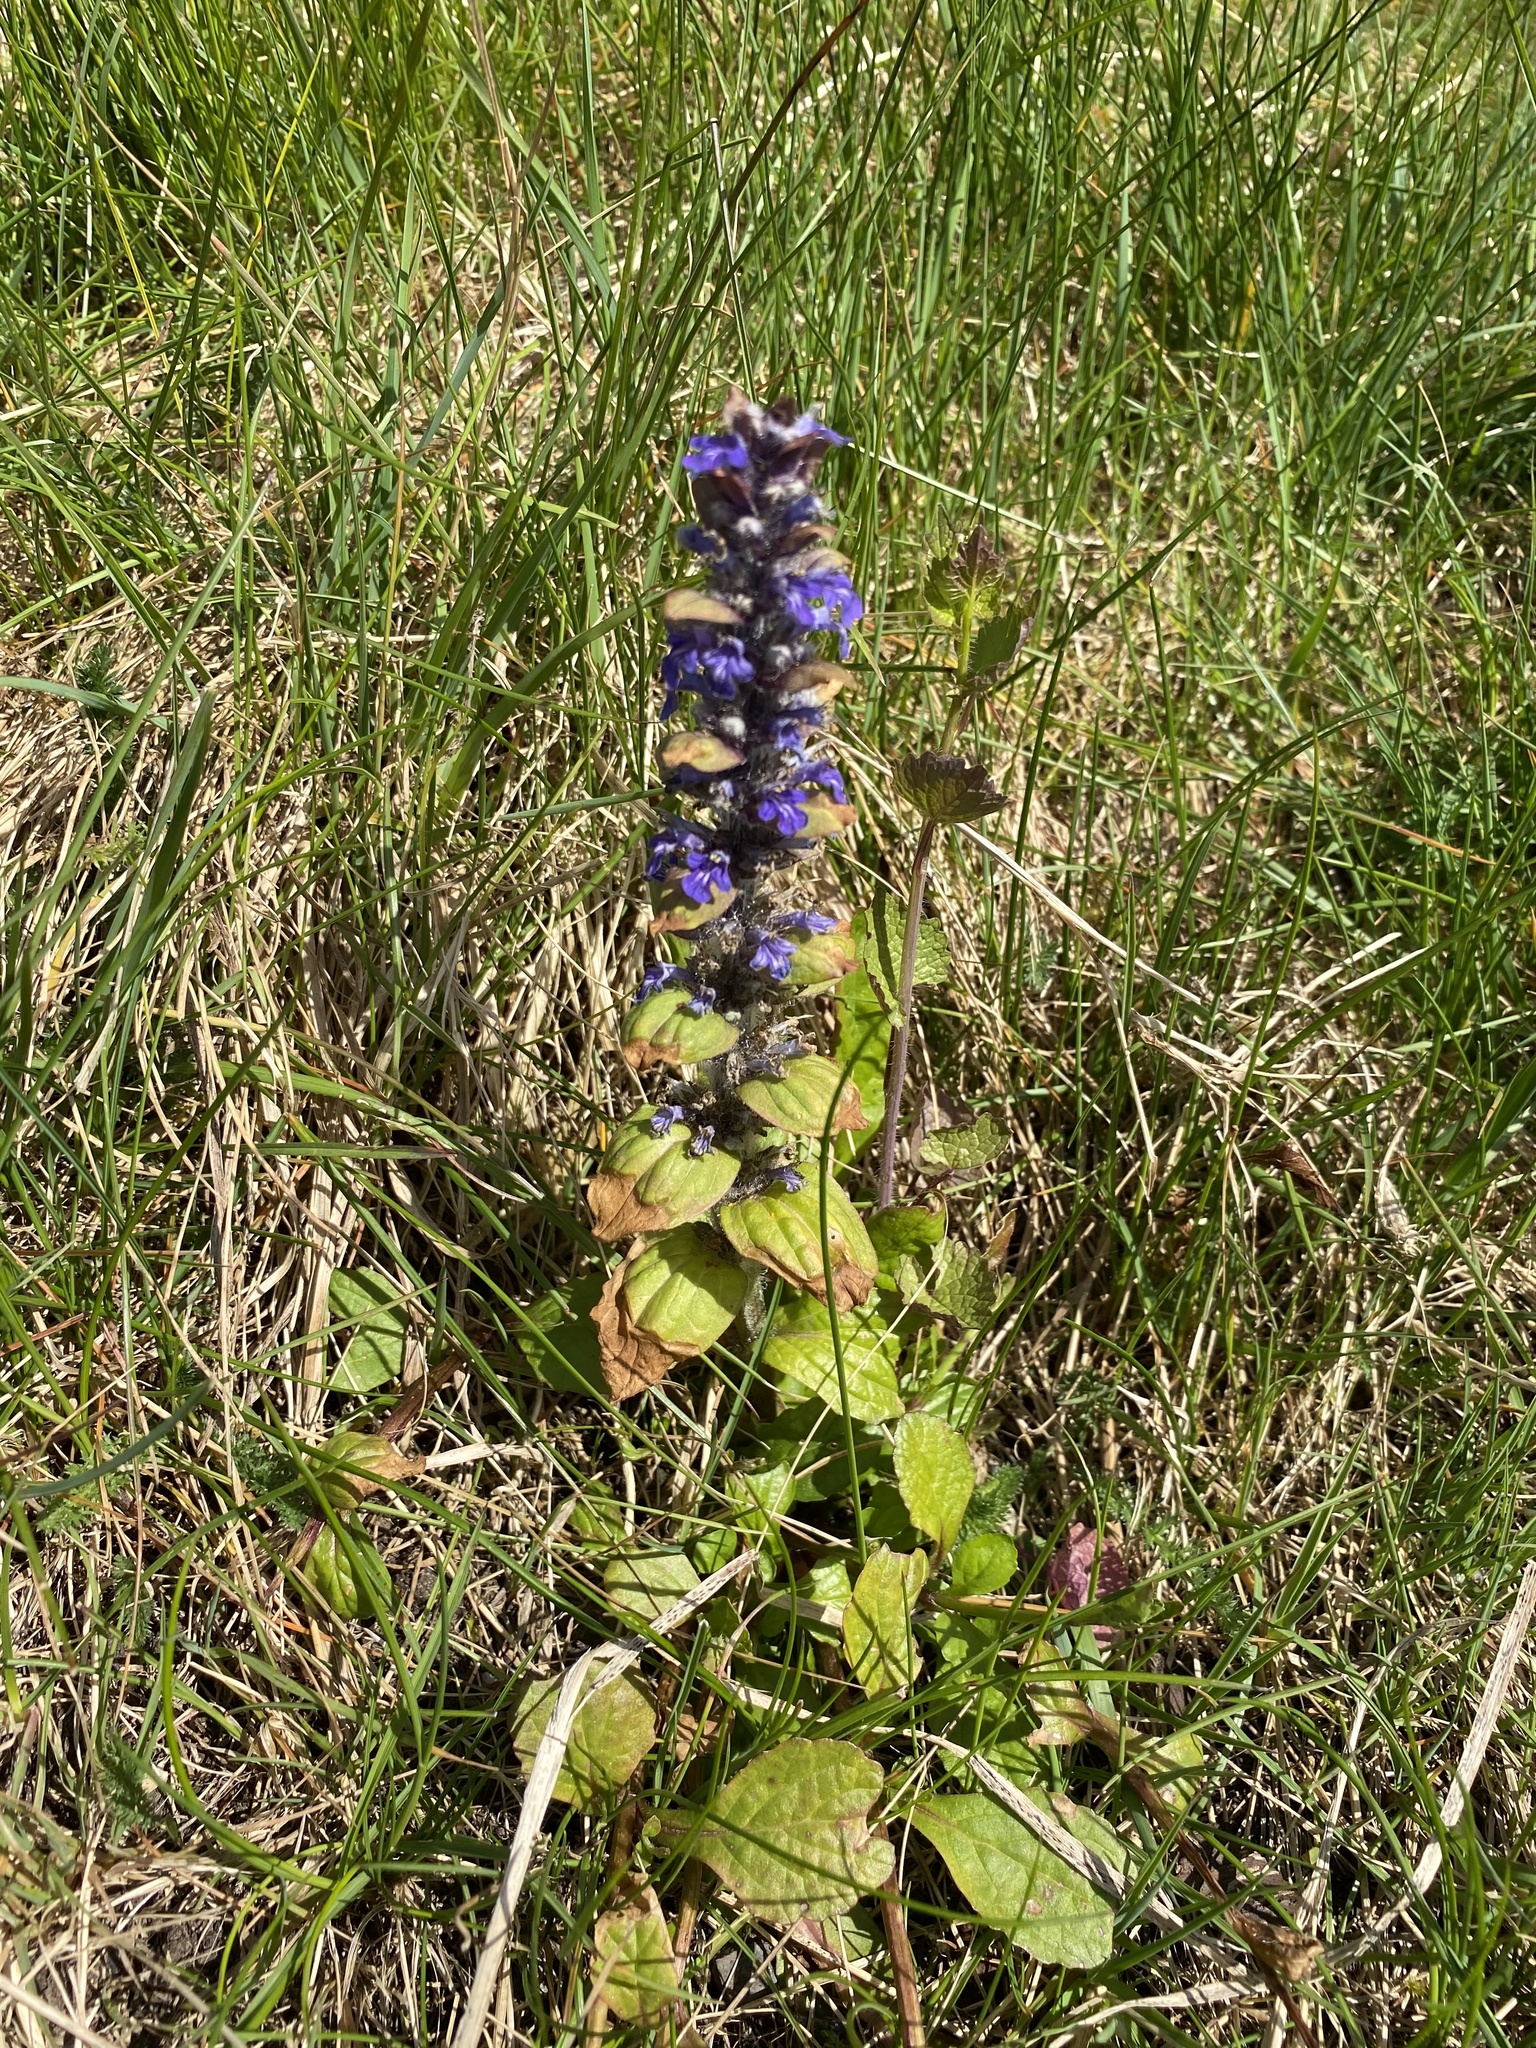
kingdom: Plantae
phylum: Tracheophyta
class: Magnoliopsida
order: Lamiales
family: Lamiaceae
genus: Ajuga
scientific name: Ajuga reptans
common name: Bugle
